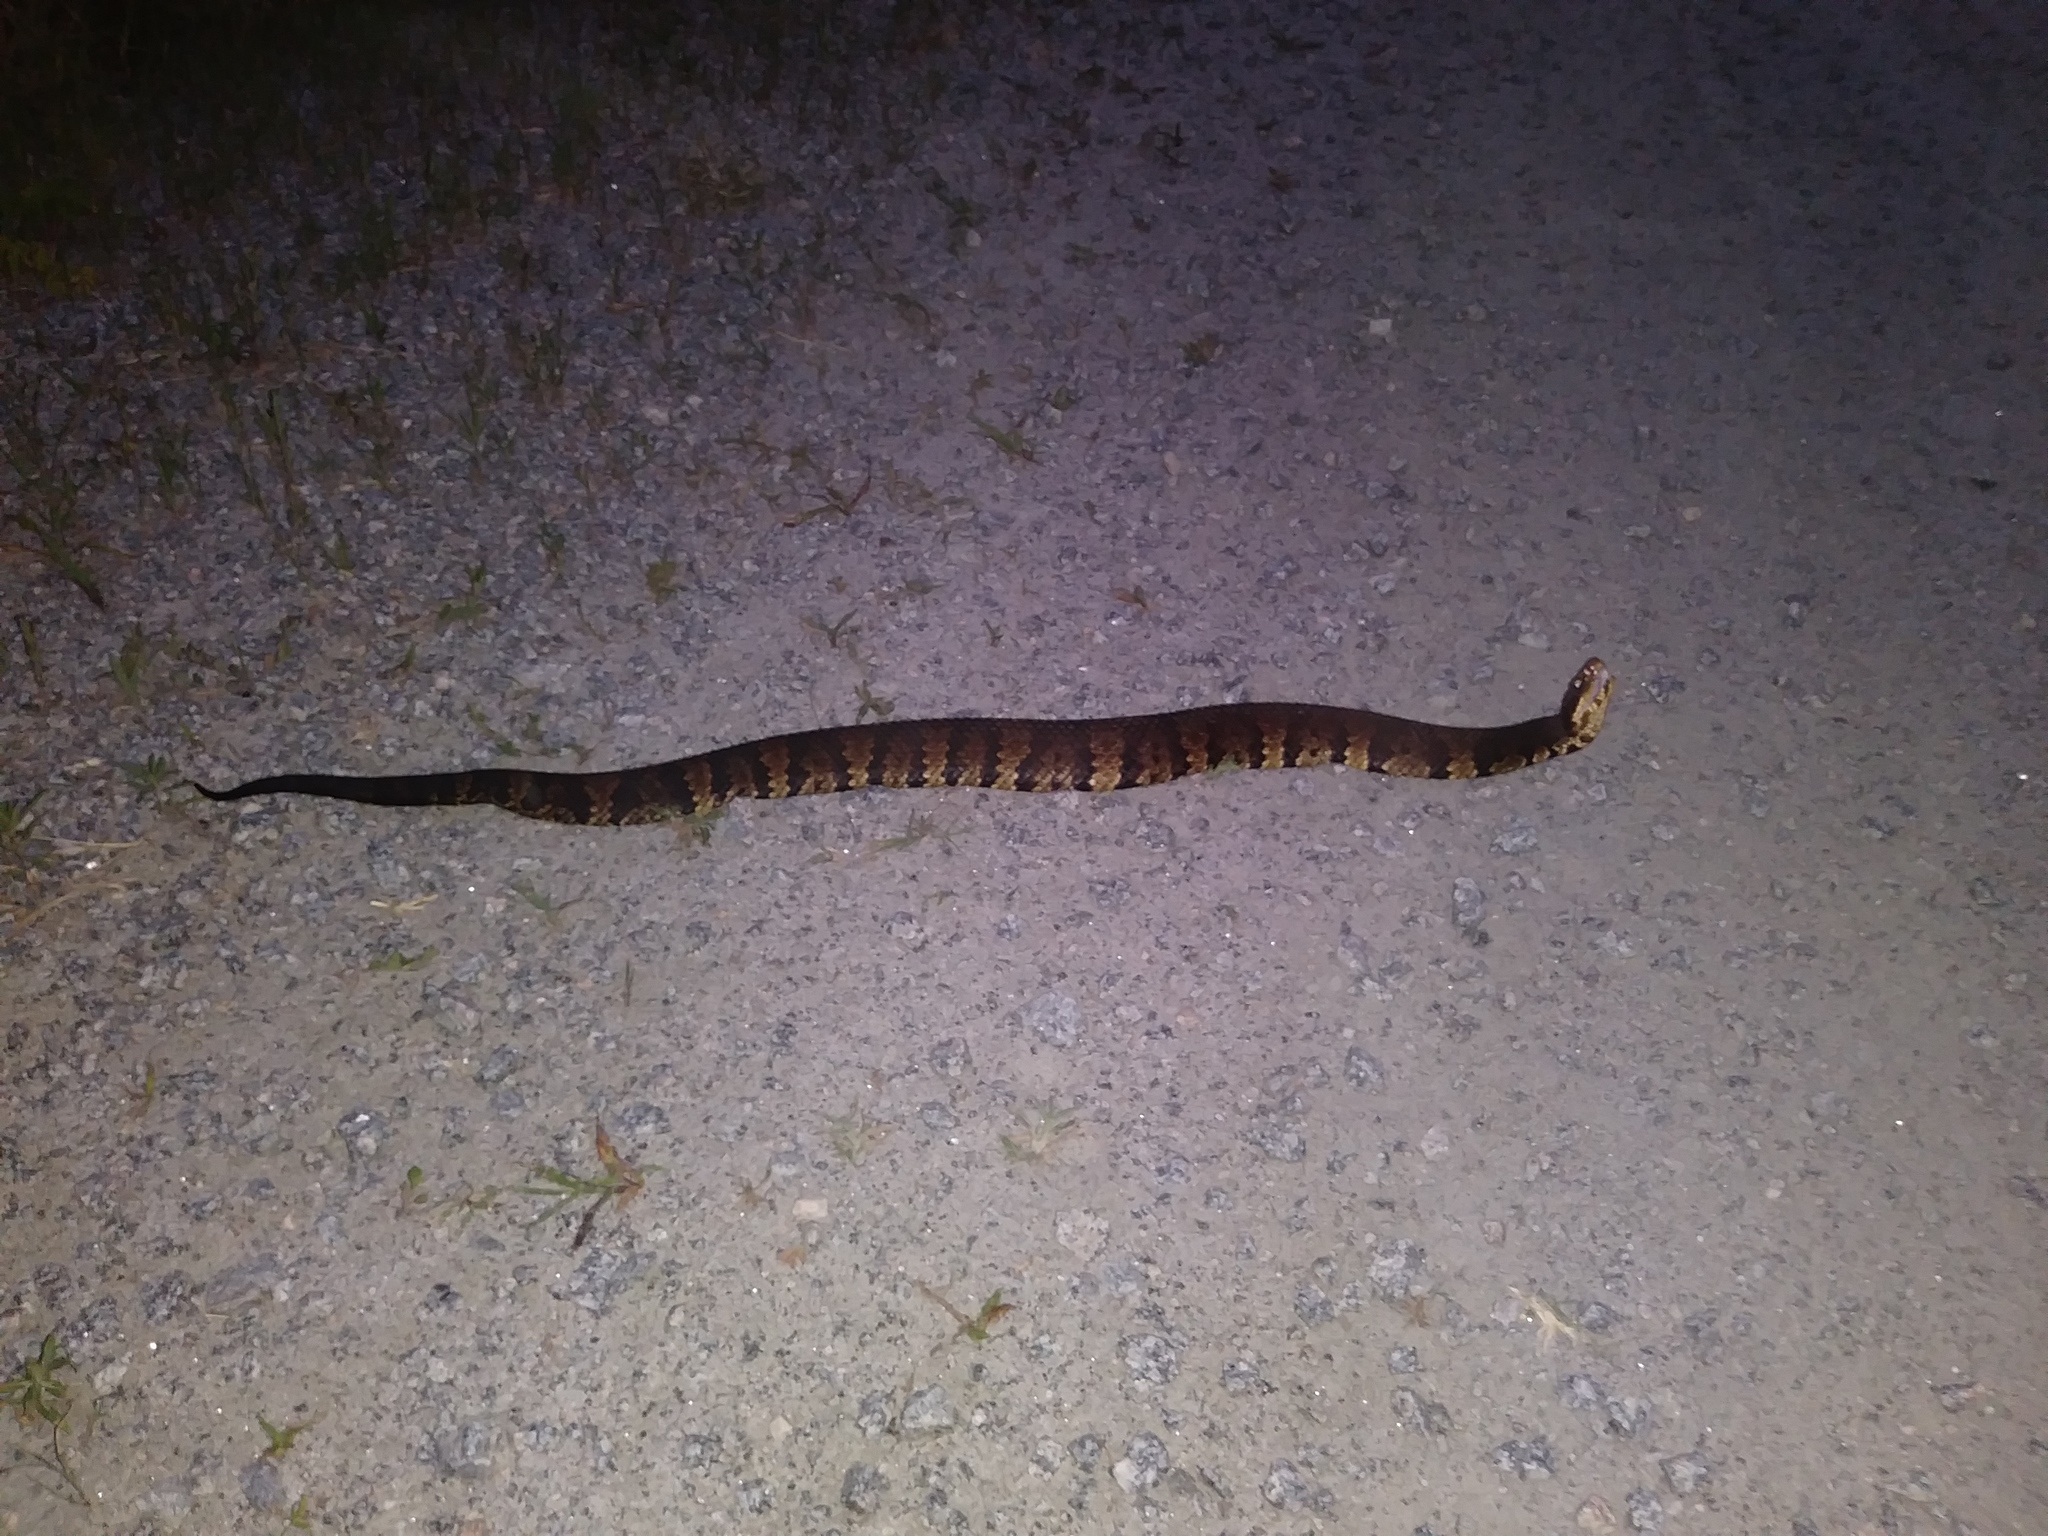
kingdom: Animalia
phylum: Chordata
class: Squamata
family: Viperidae
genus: Agkistrodon
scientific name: Agkistrodon piscivorus
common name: Cottonmouth
